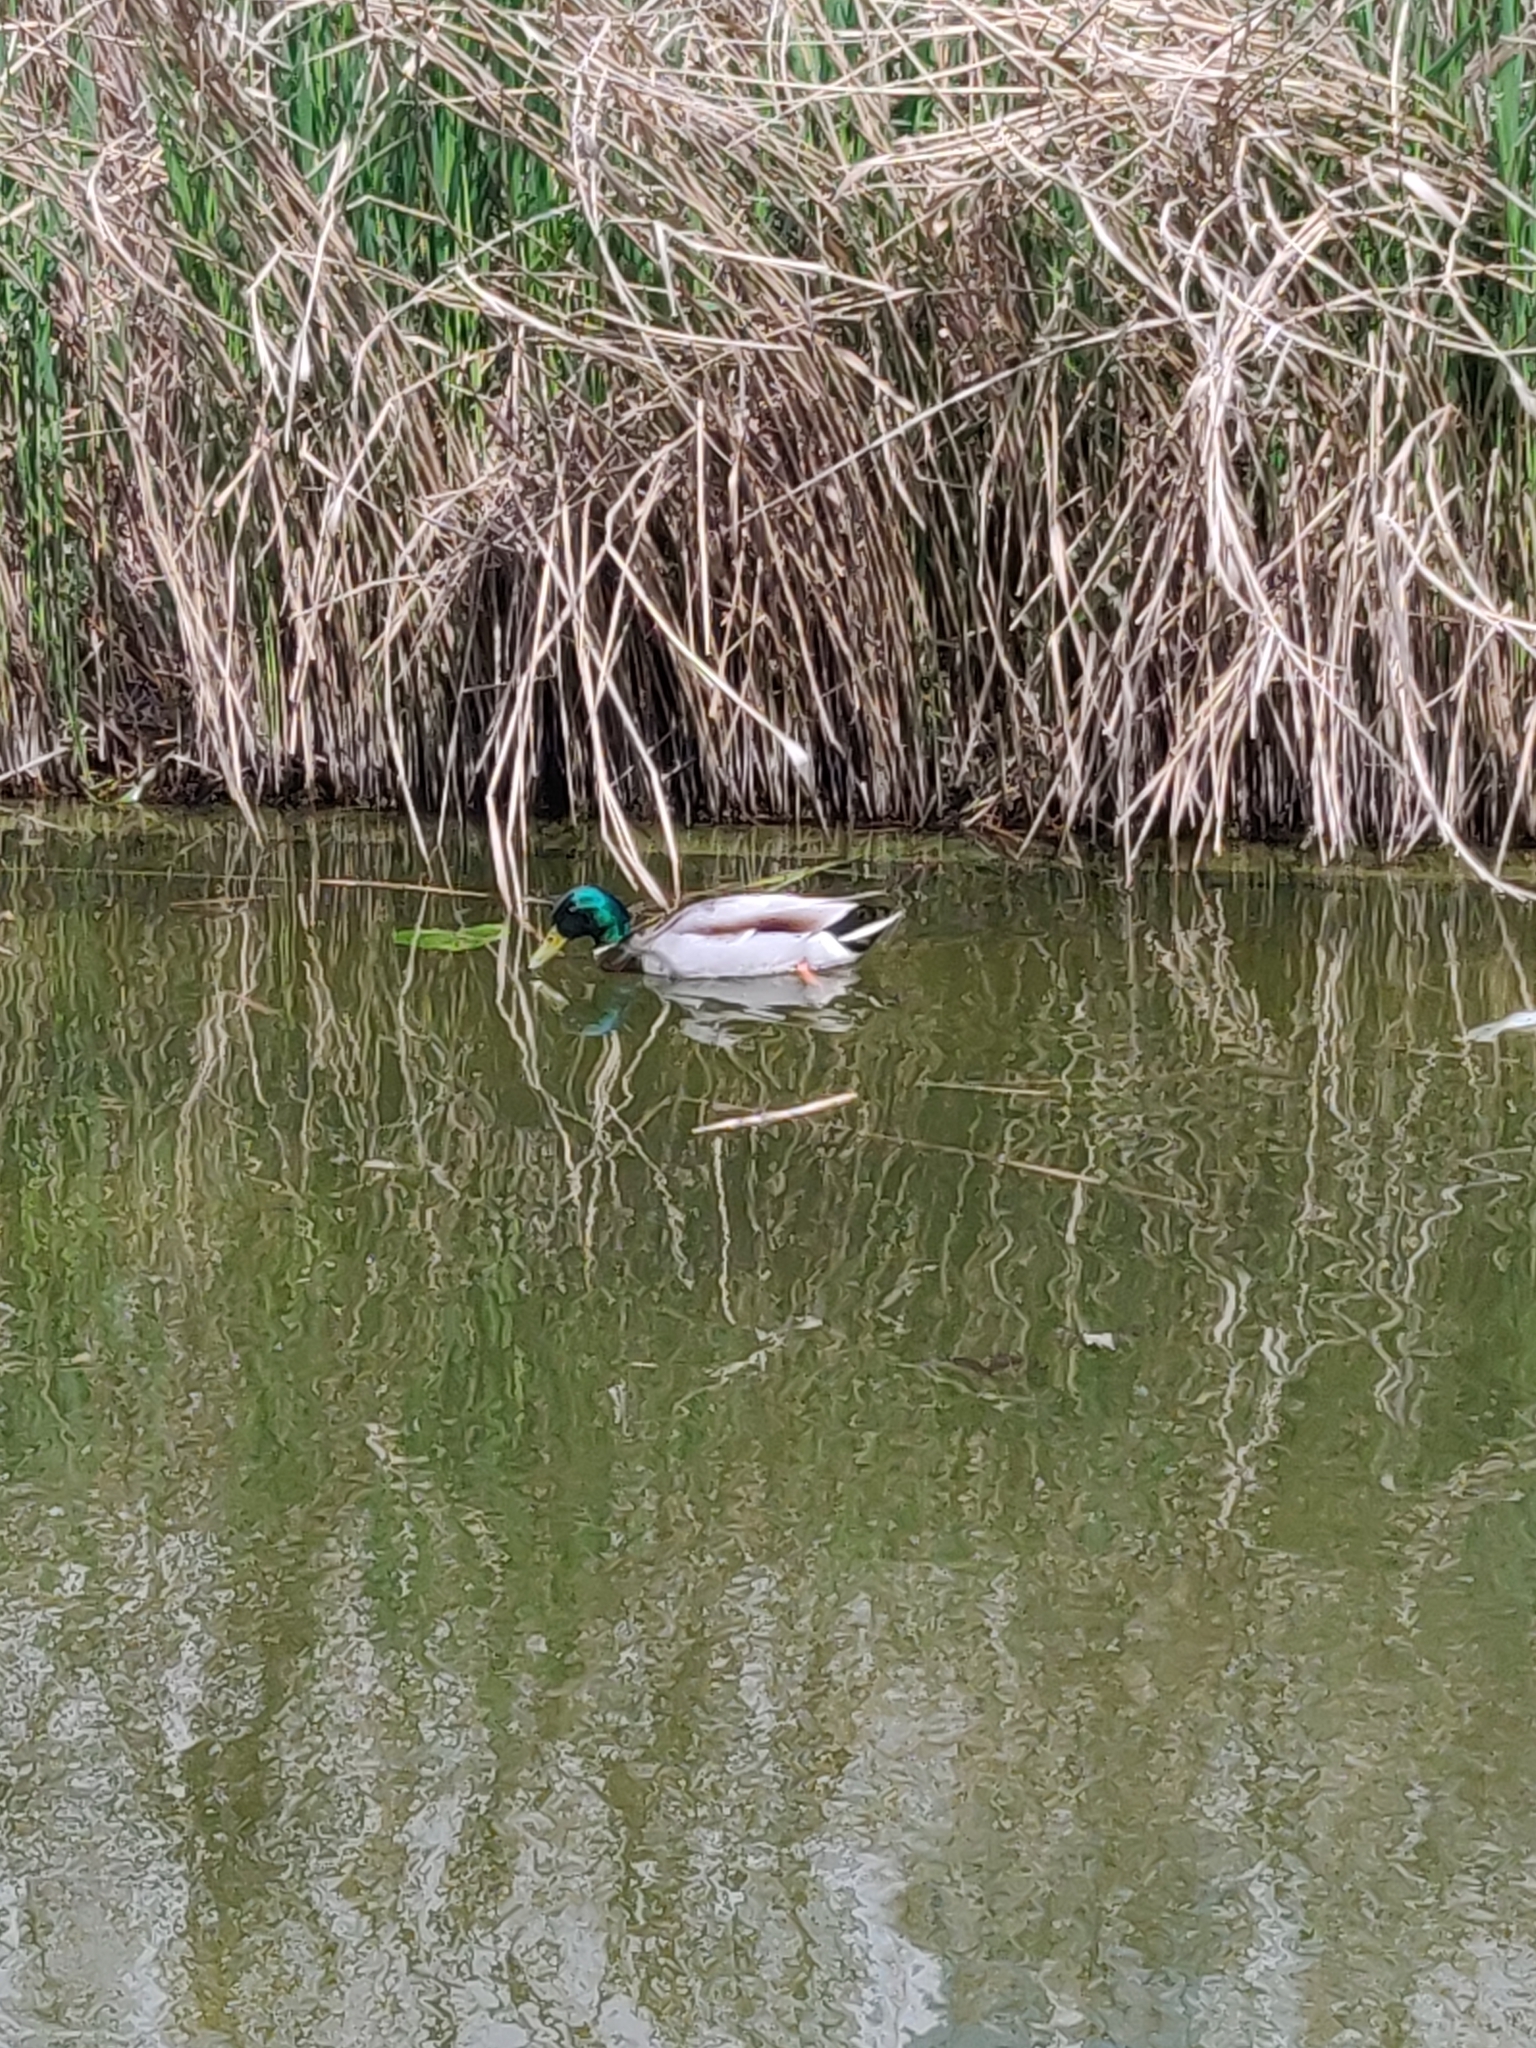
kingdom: Animalia
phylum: Chordata
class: Aves
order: Anseriformes
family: Anatidae
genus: Anas
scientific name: Anas platyrhynchos
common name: Mallard
